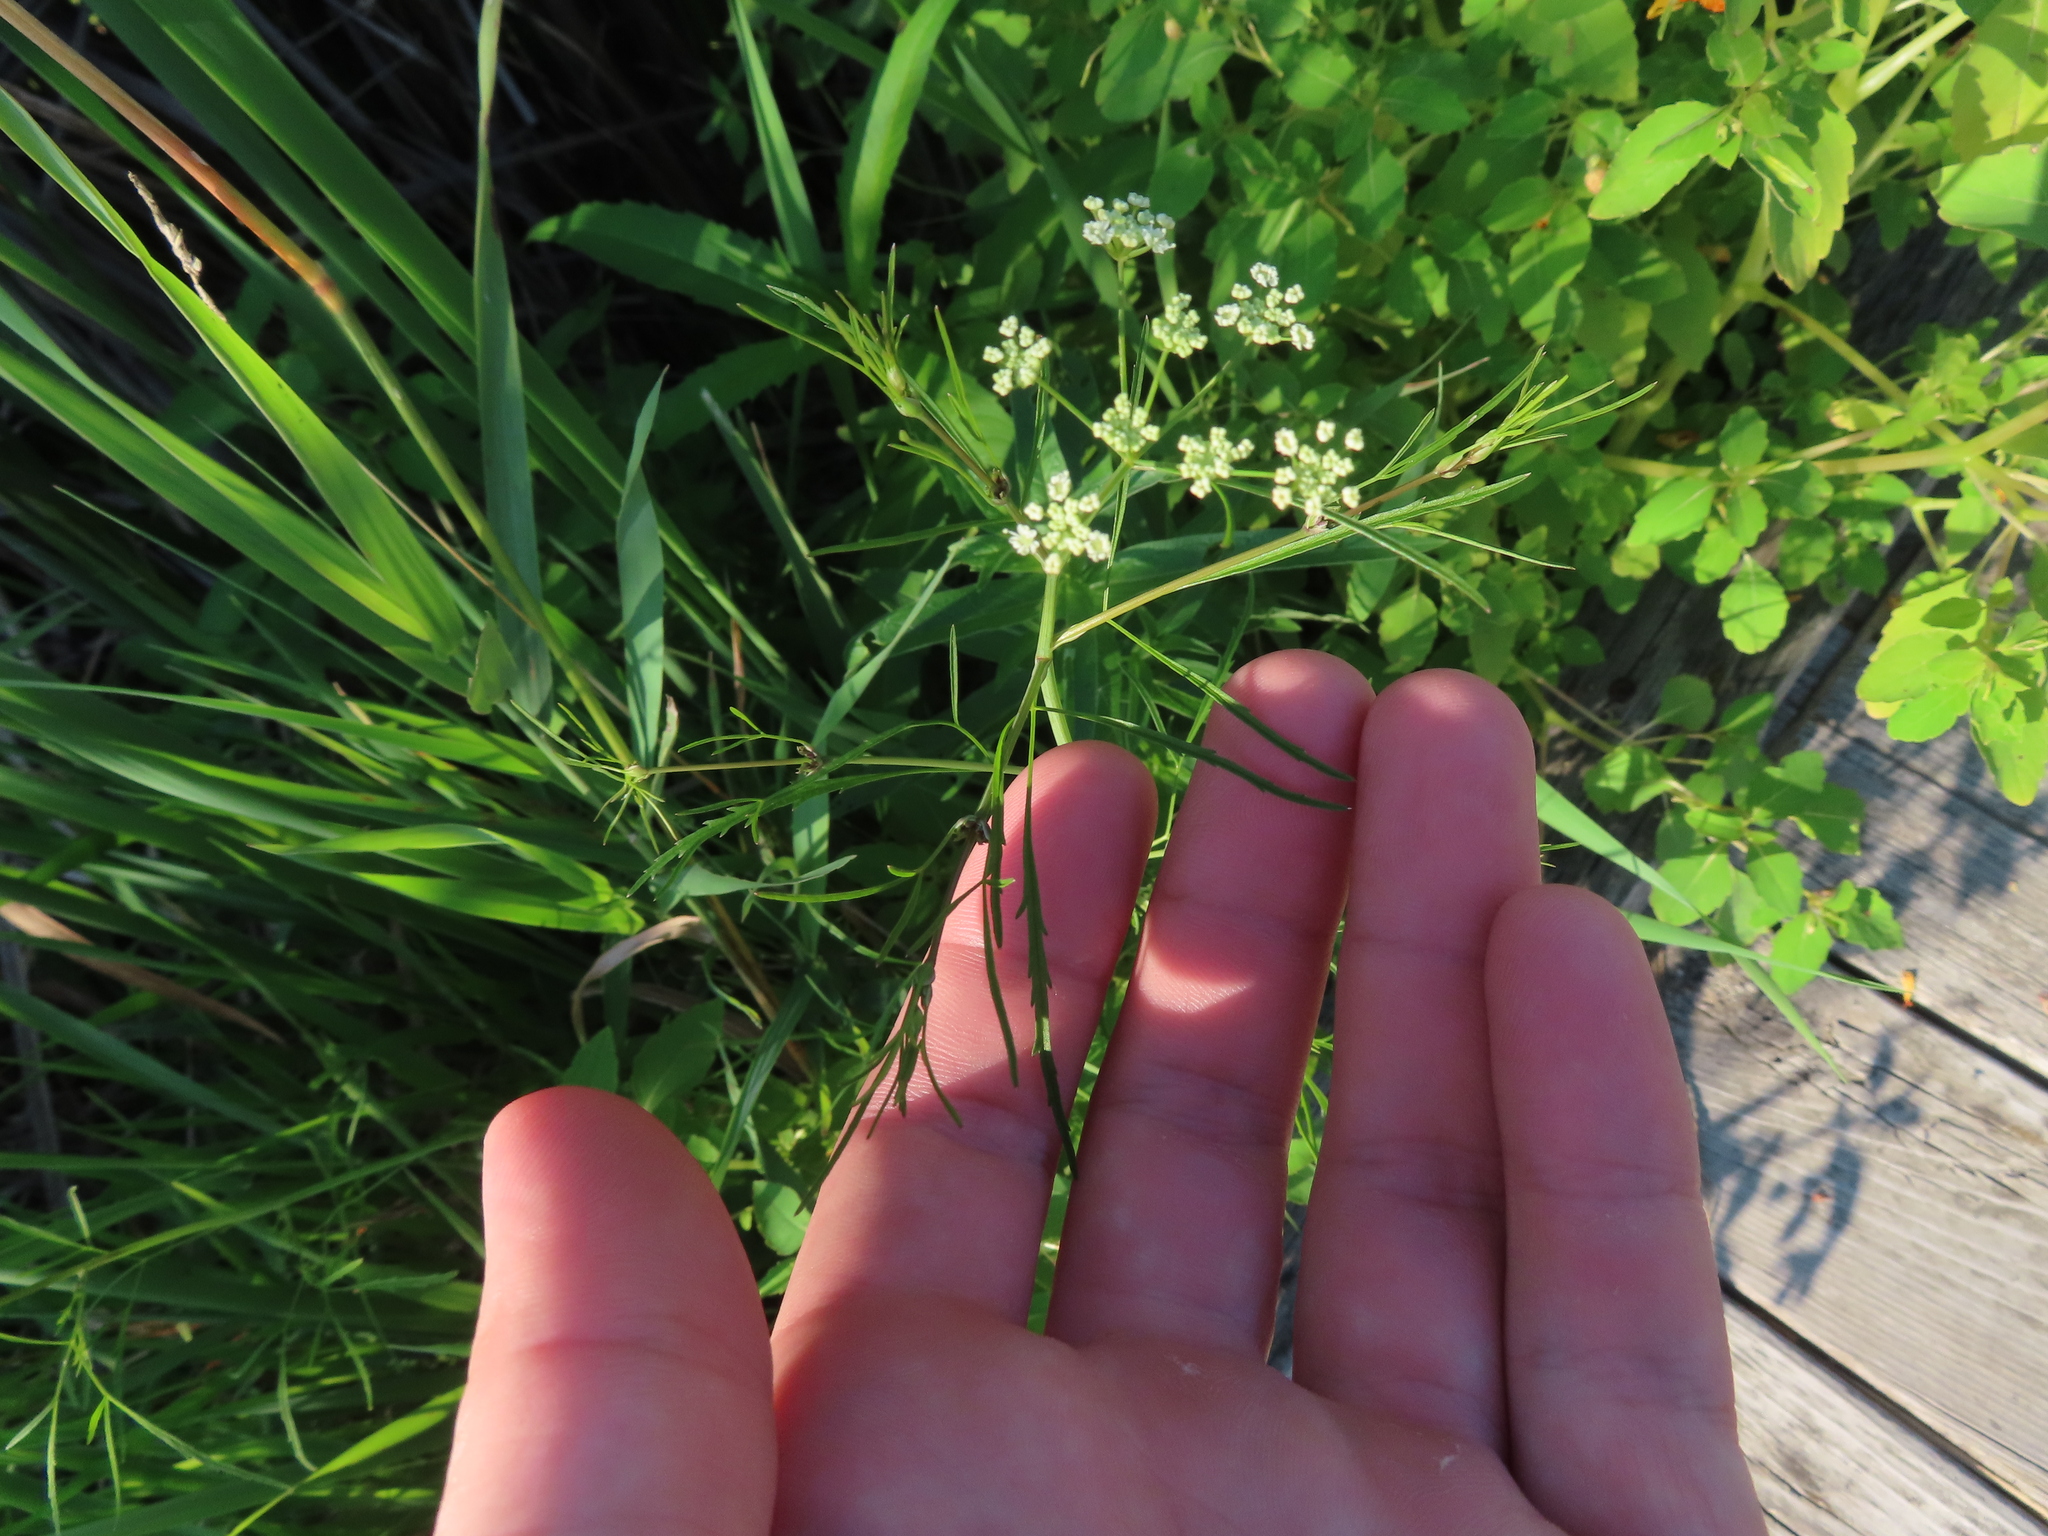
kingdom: Plantae
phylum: Tracheophyta
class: Magnoliopsida
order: Apiales
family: Apiaceae
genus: Cicuta
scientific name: Cicuta bulbifera
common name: Bulb-bearing water-hemlock
